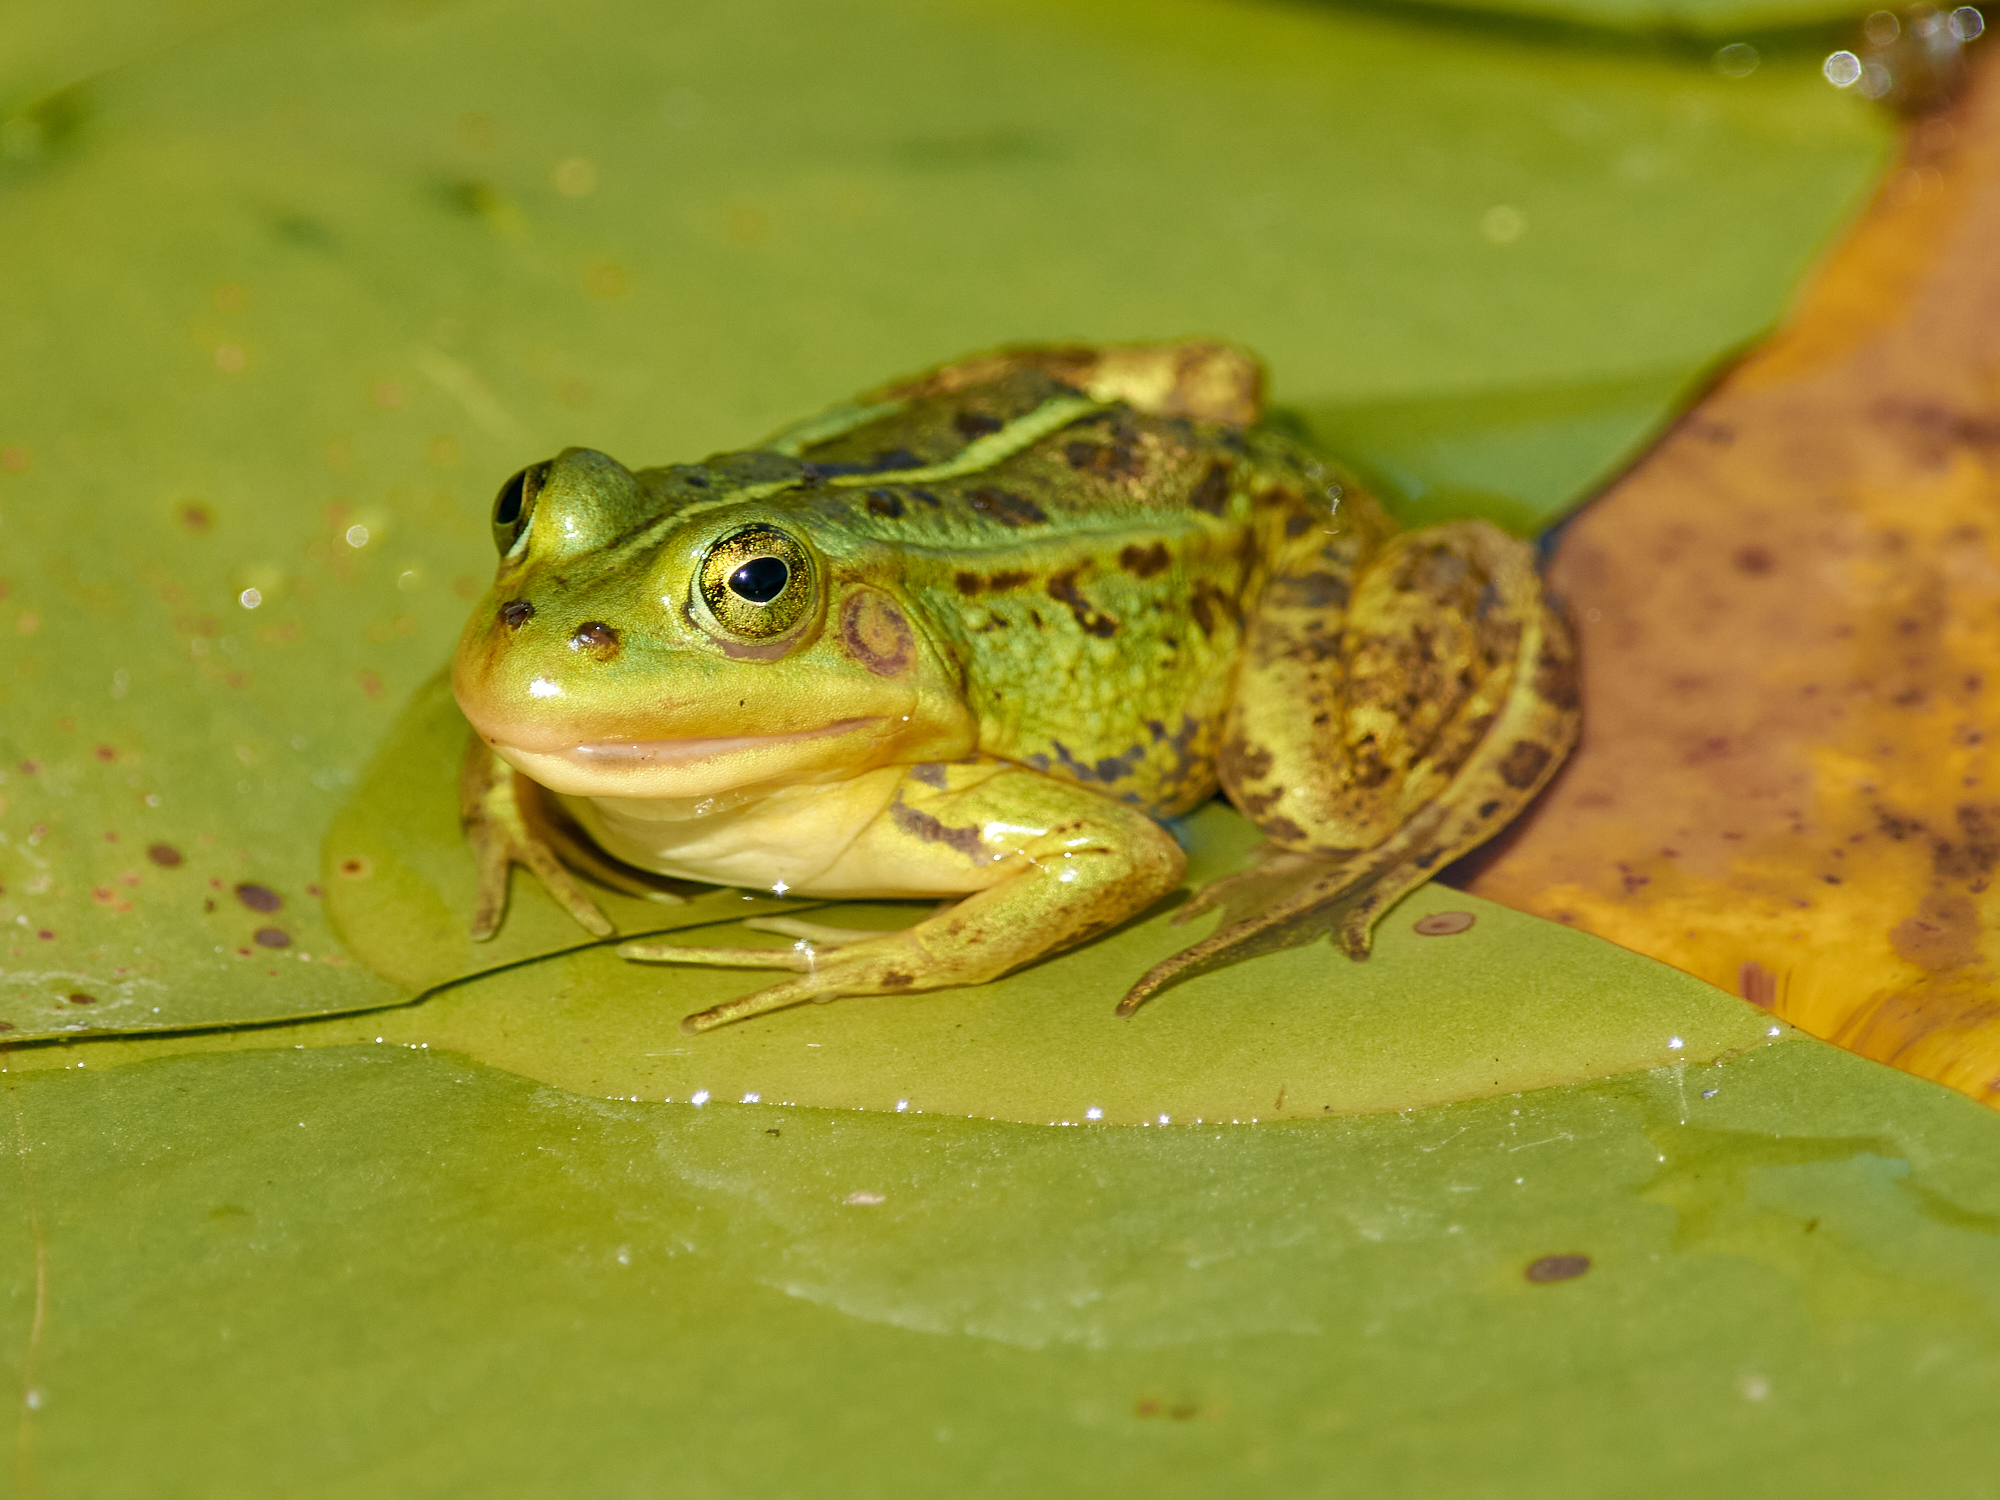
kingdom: Animalia
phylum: Chordata
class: Amphibia
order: Anura
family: Ranidae
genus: Pelophylax
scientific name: Pelophylax lessonae
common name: Pool frog
